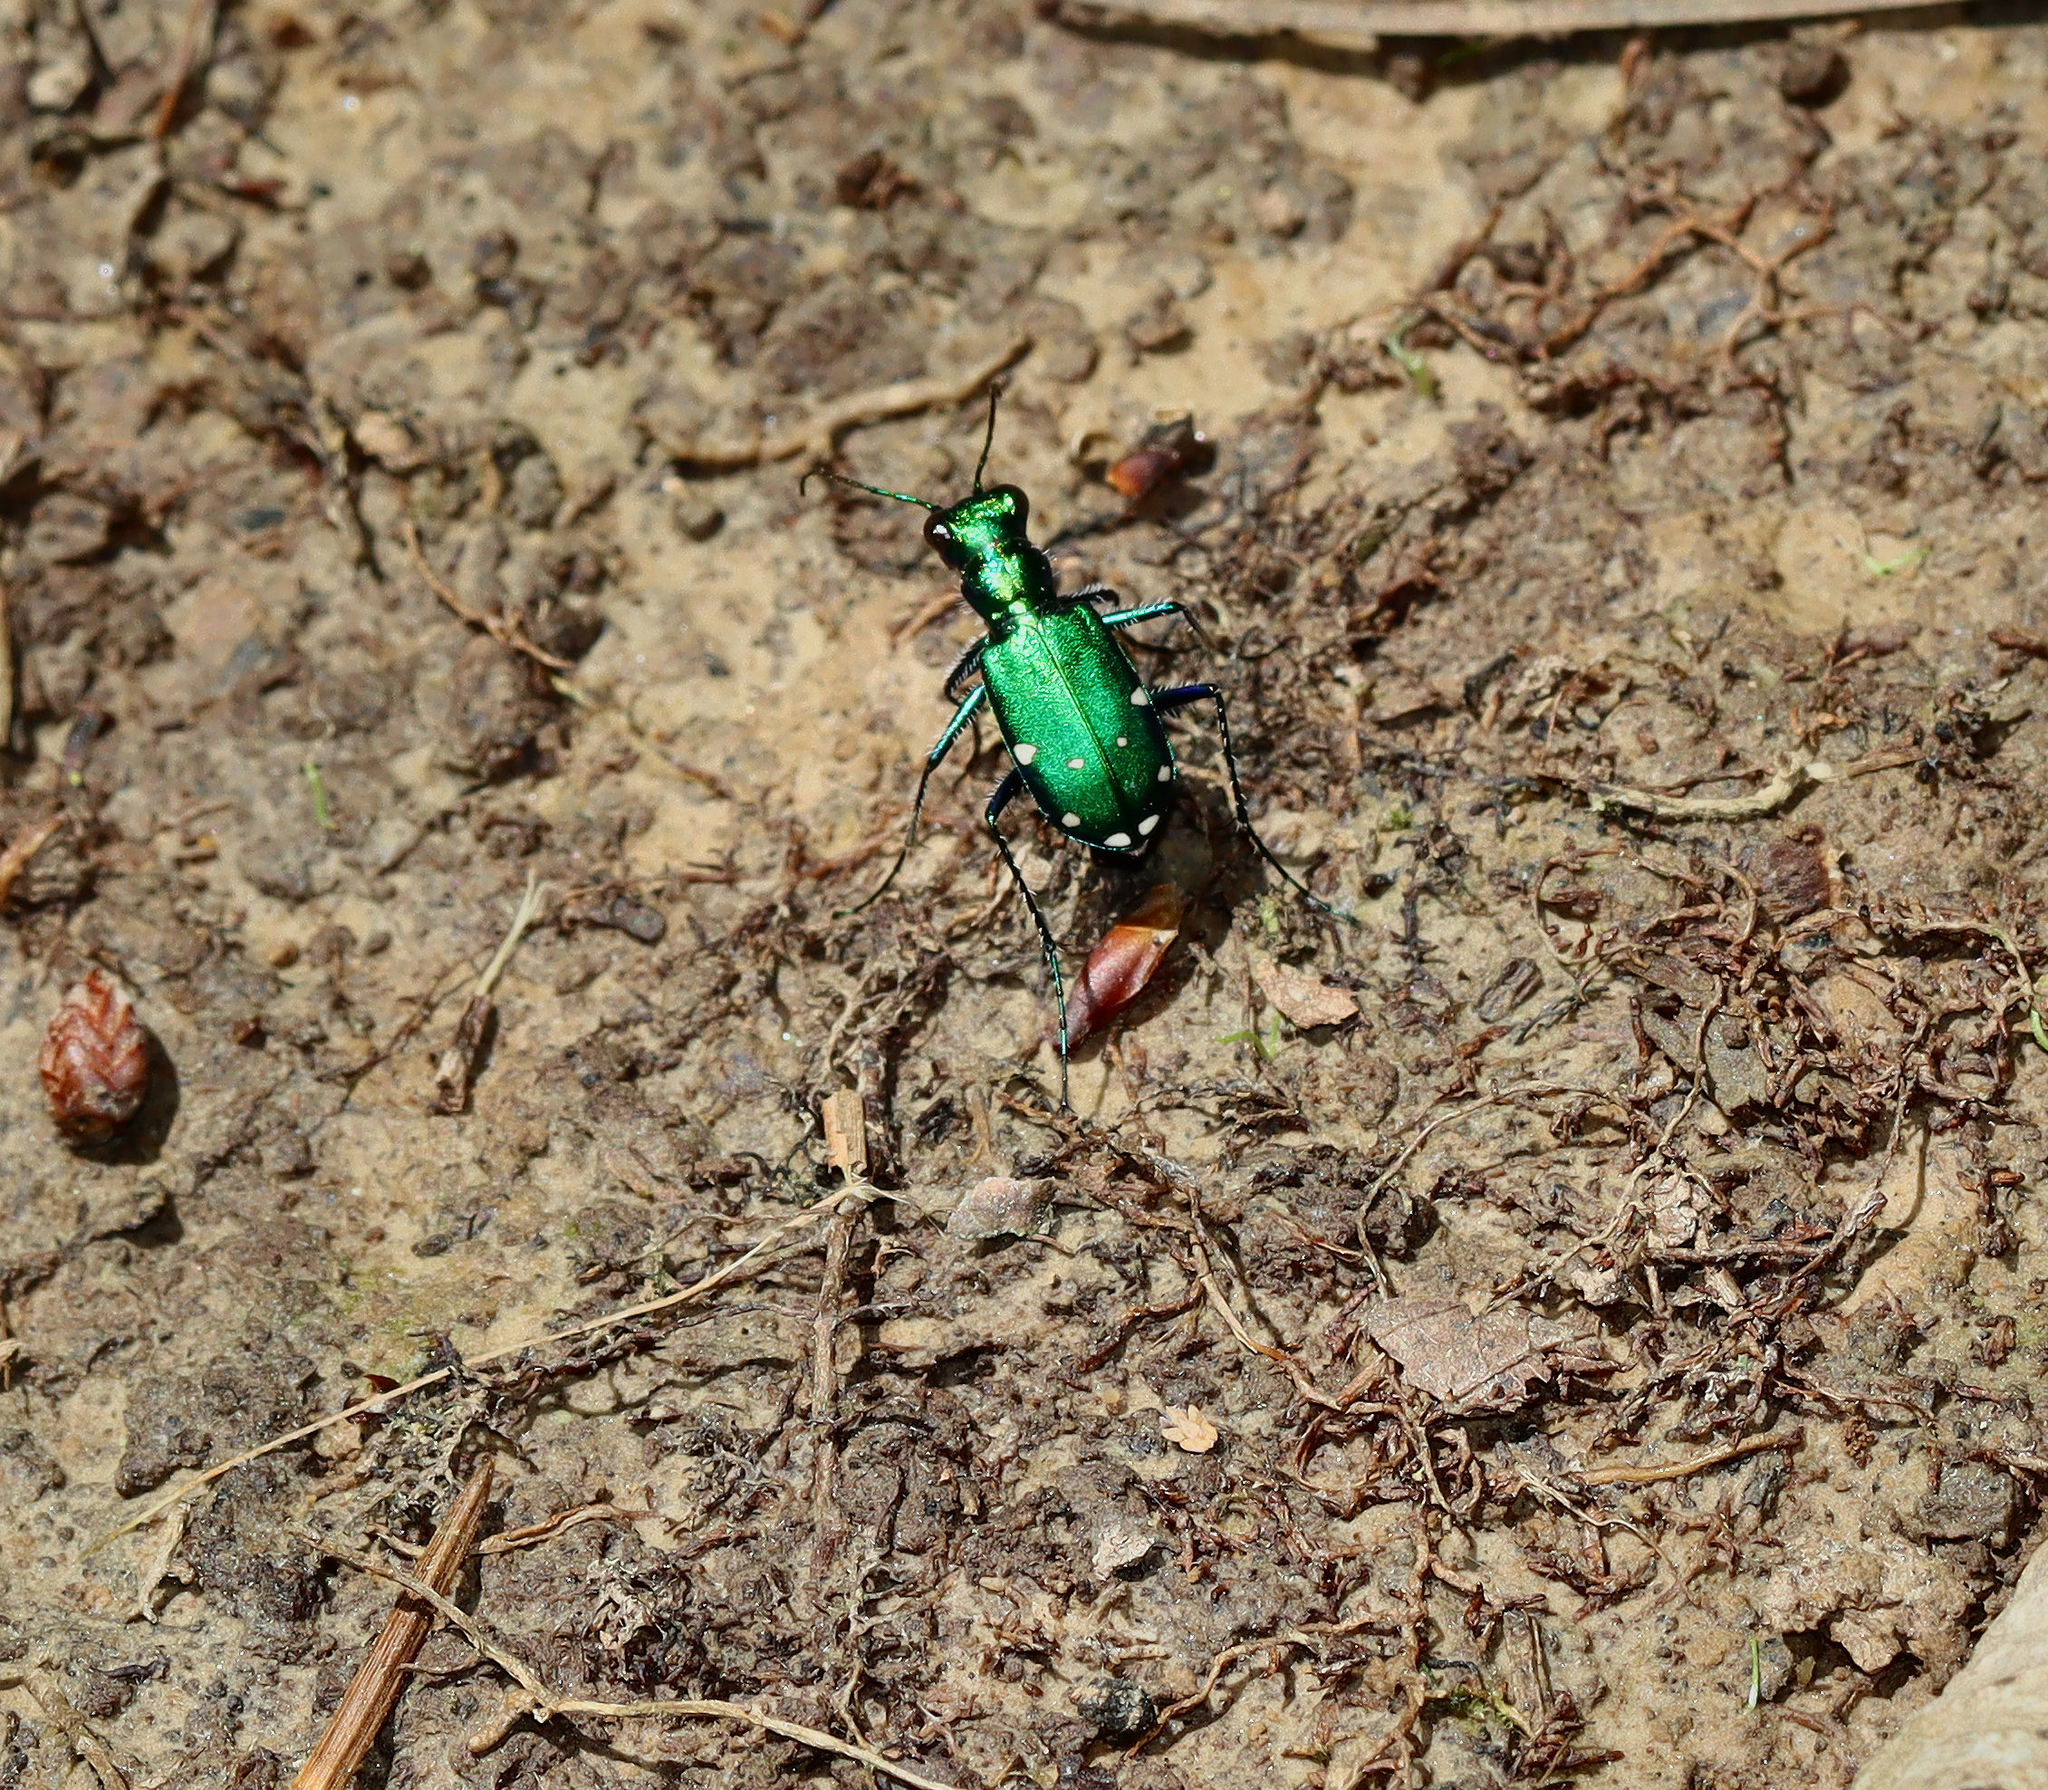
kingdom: Animalia
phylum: Arthropoda
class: Insecta
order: Coleoptera
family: Carabidae
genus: Cicindela
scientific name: Cicindela sexguttata
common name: Six-spotted tiger beetle
